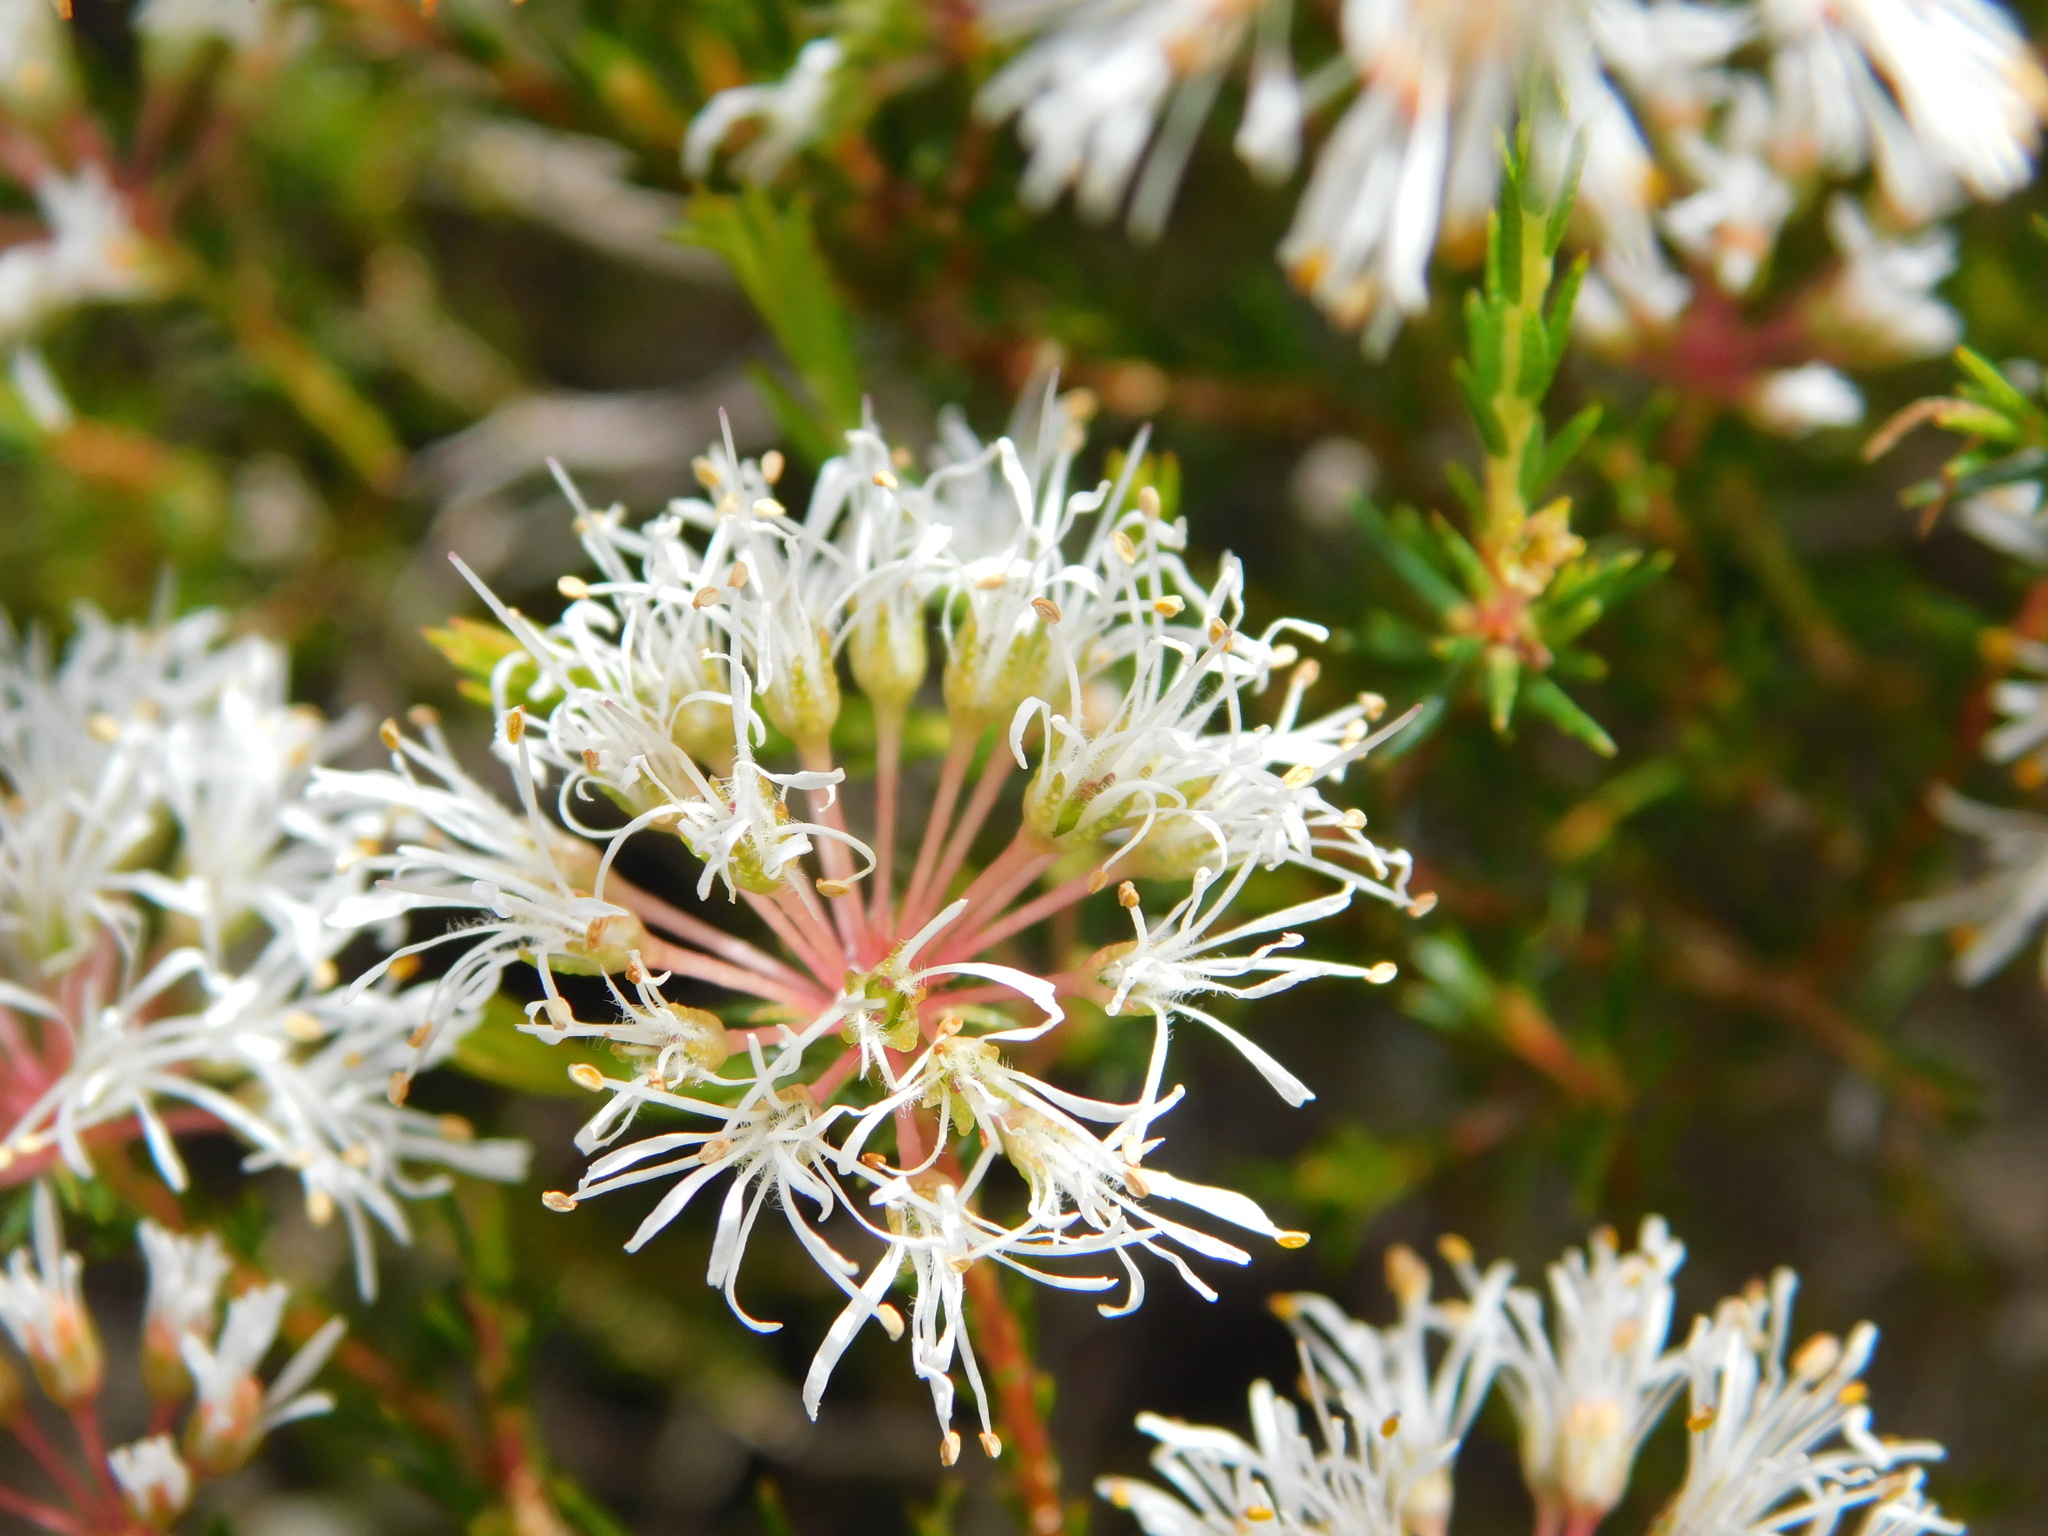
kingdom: Plantae
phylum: Tracheophyta
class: Magnoliopsida
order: Sapindales
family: Rutaceae
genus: Agathosma
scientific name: Agathosma bifida
